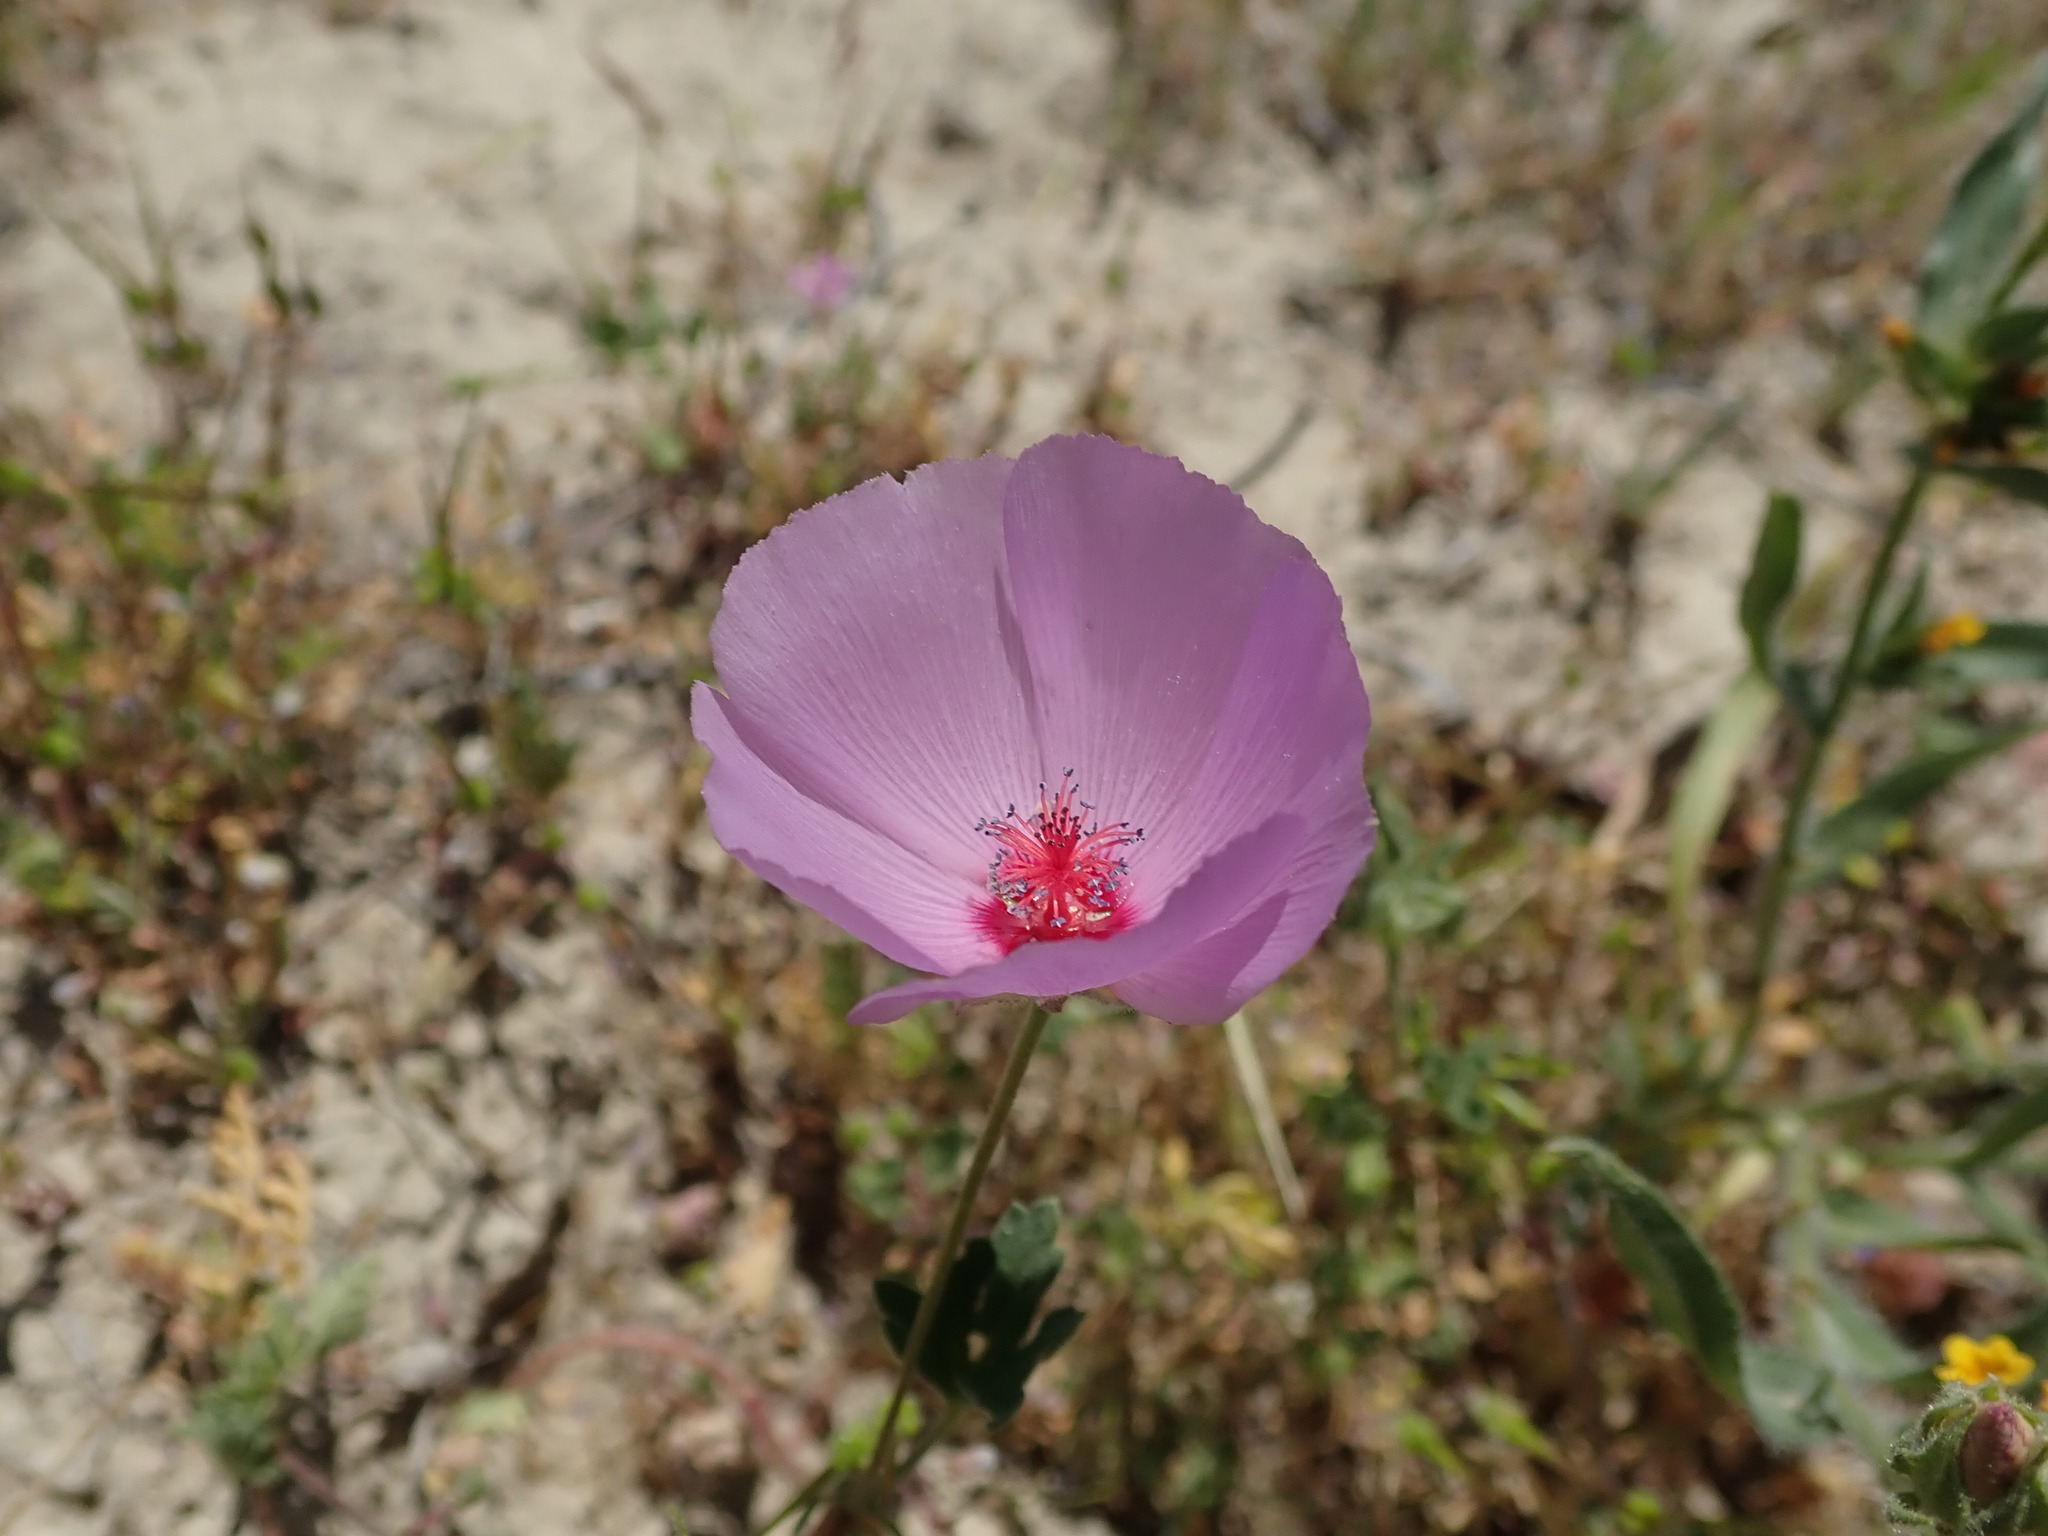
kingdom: Plantae
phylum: Tracheophyta
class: Magnoliopsida
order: Malvales
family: Malvaceae
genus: Eremalche
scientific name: Eremalche parryi
